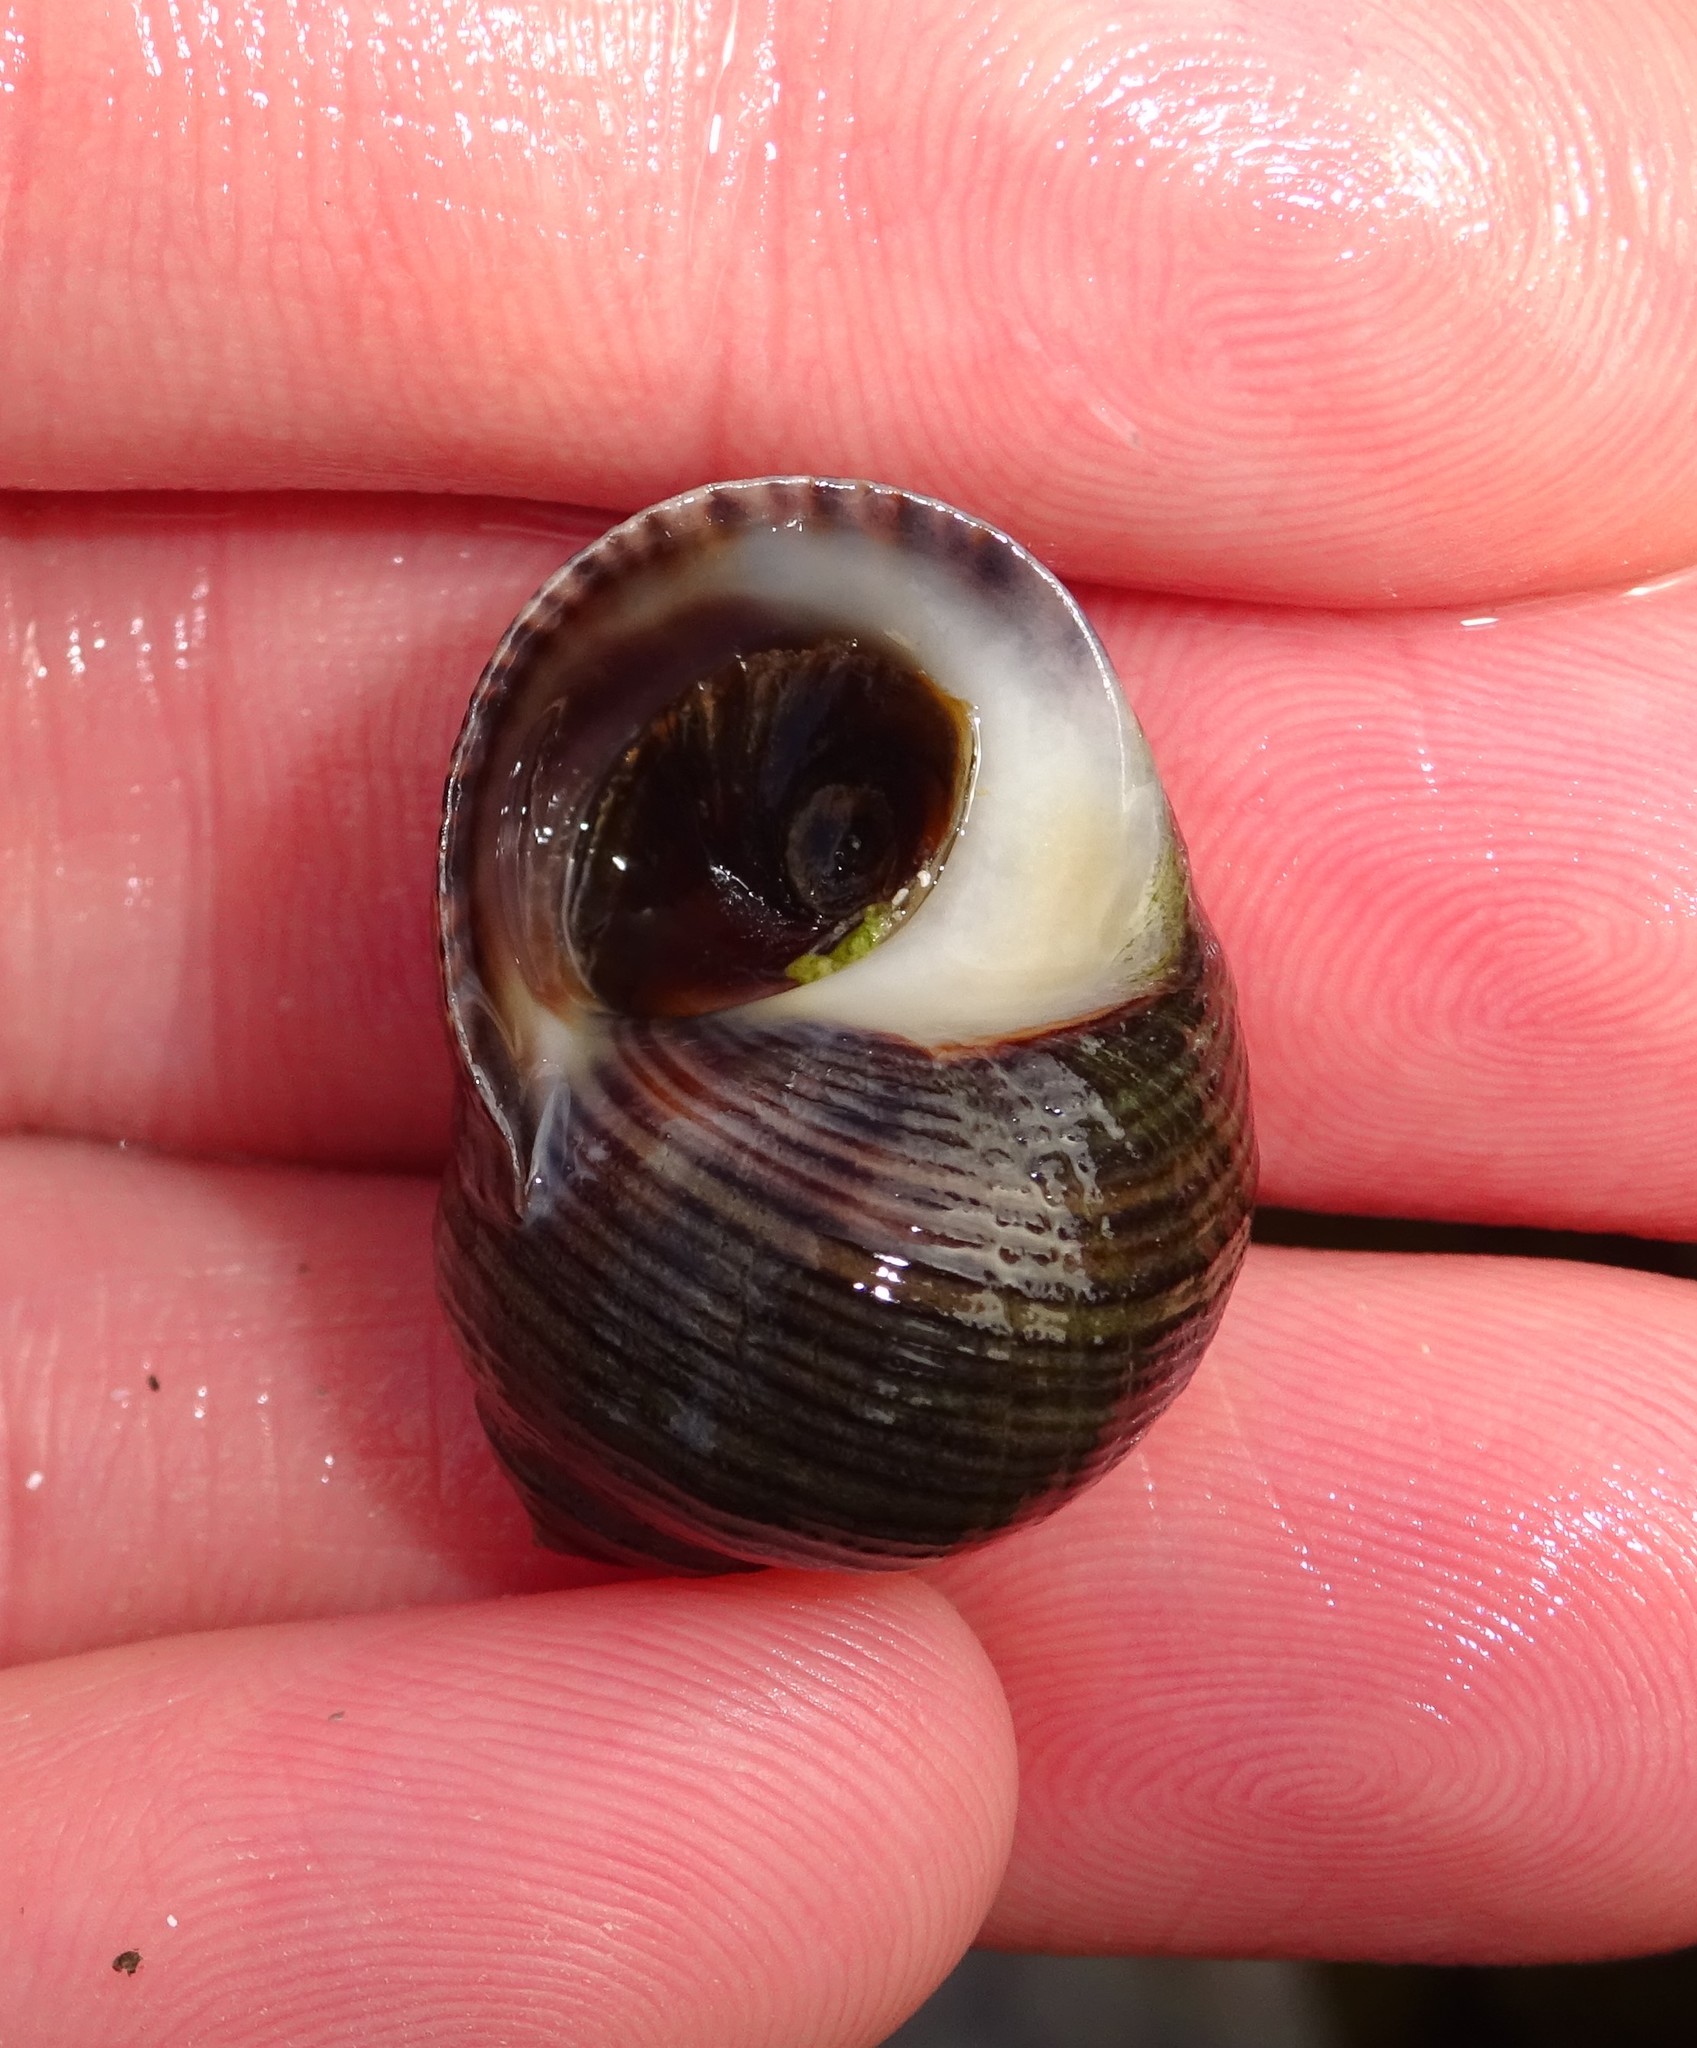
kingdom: Animalia
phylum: Mollusca
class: Gastropoda
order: Littorinimorpha
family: Littorinidae
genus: Littorina
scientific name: Littorina littorea
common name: Common periwinkle
